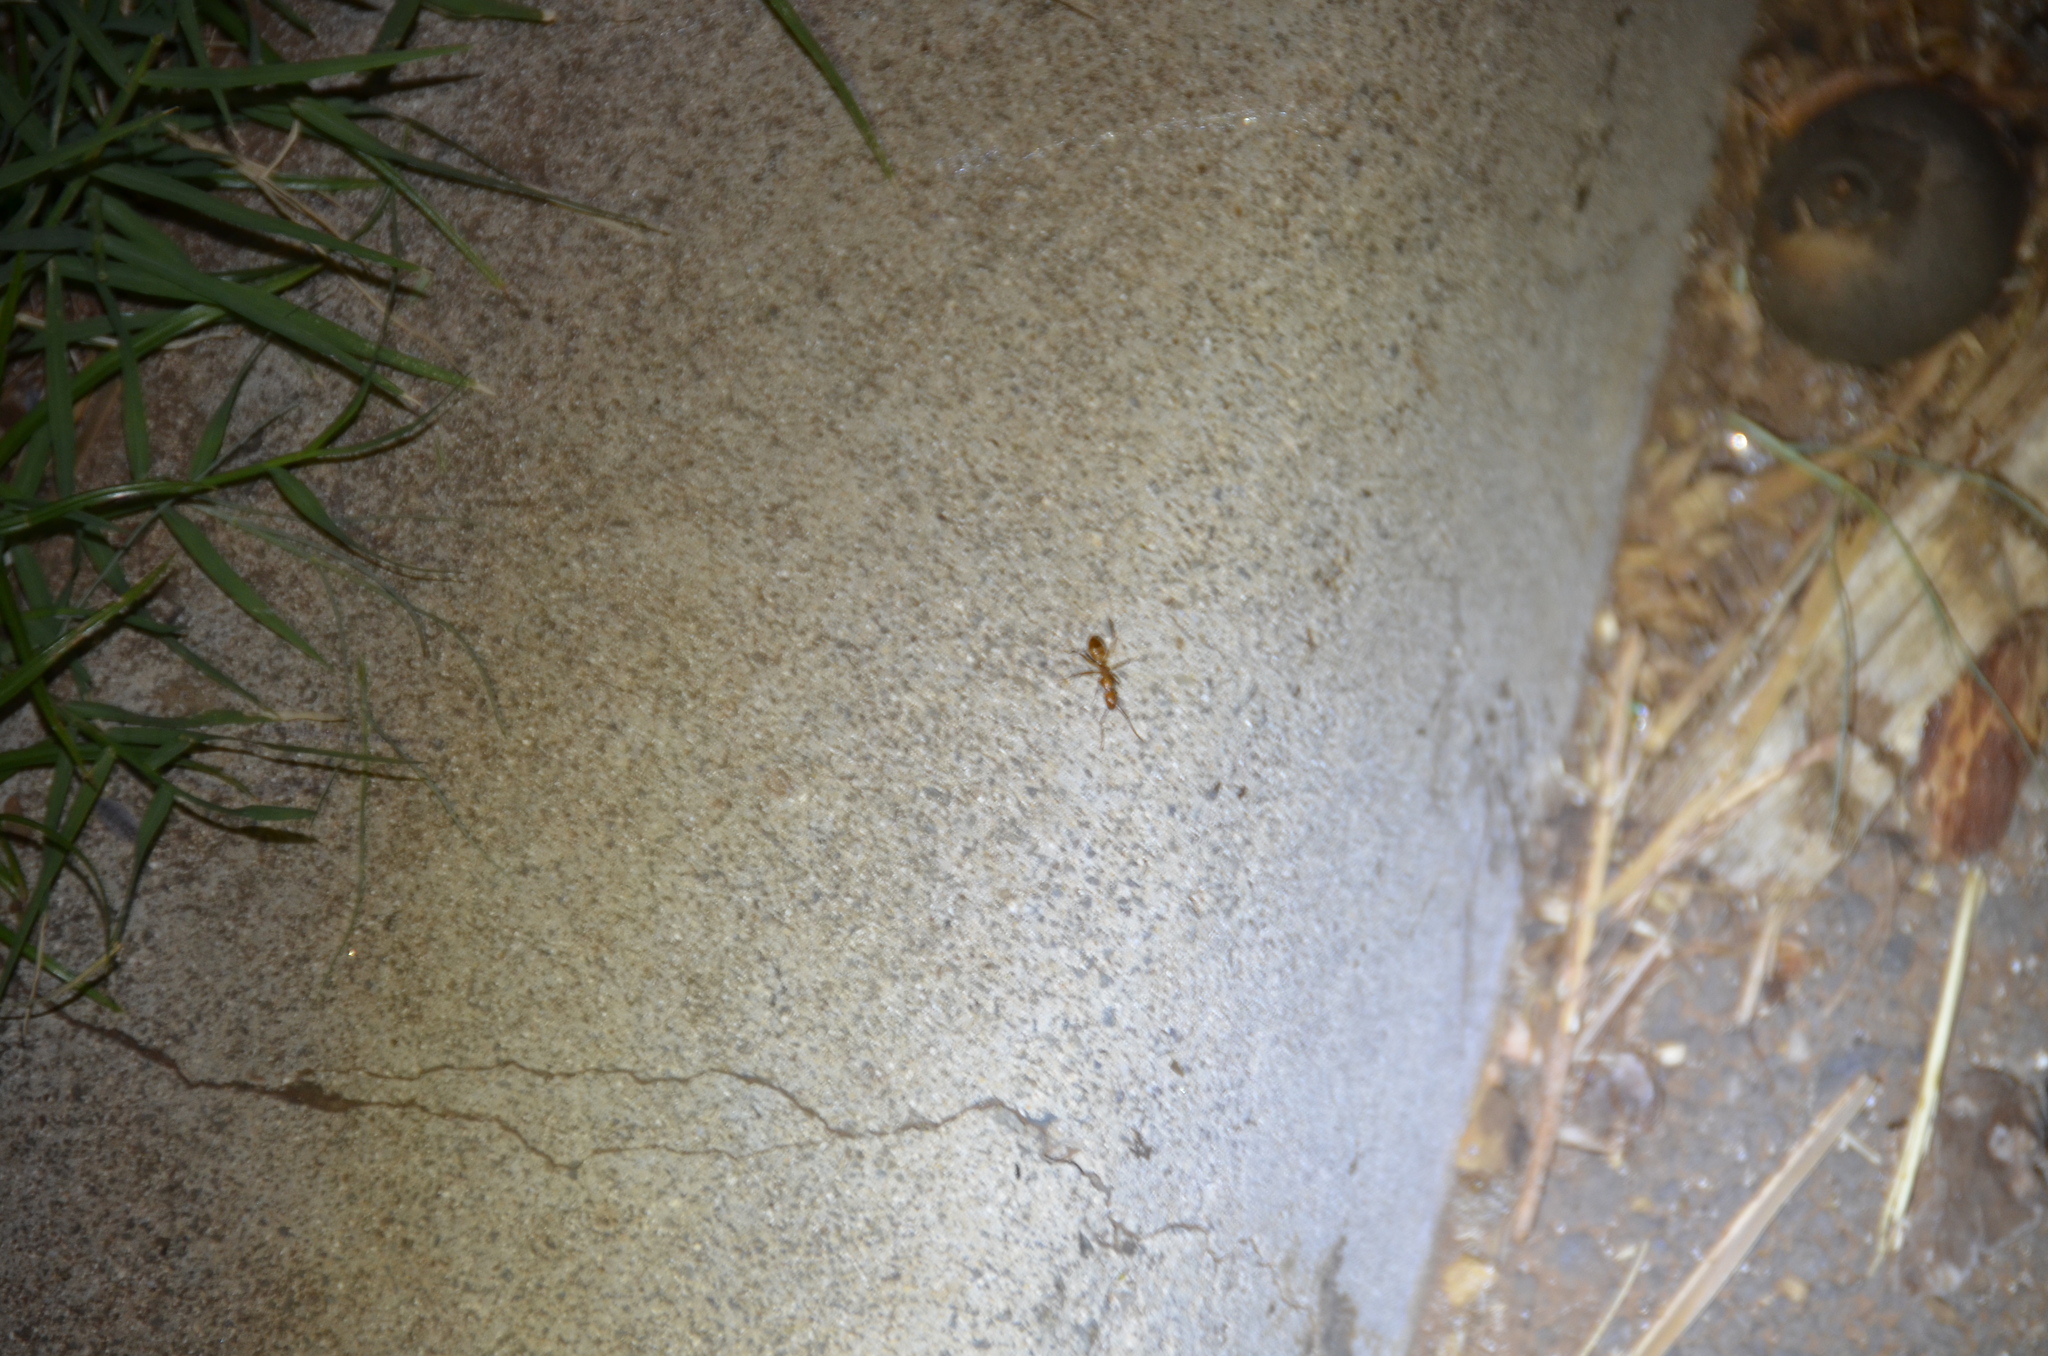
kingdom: Animalia
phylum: Arthropoda
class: Insecta
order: Hymenoptera
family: Formicidae
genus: Camponotus
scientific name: Camponotus variegatus
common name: Hawaiian carpenter ant
